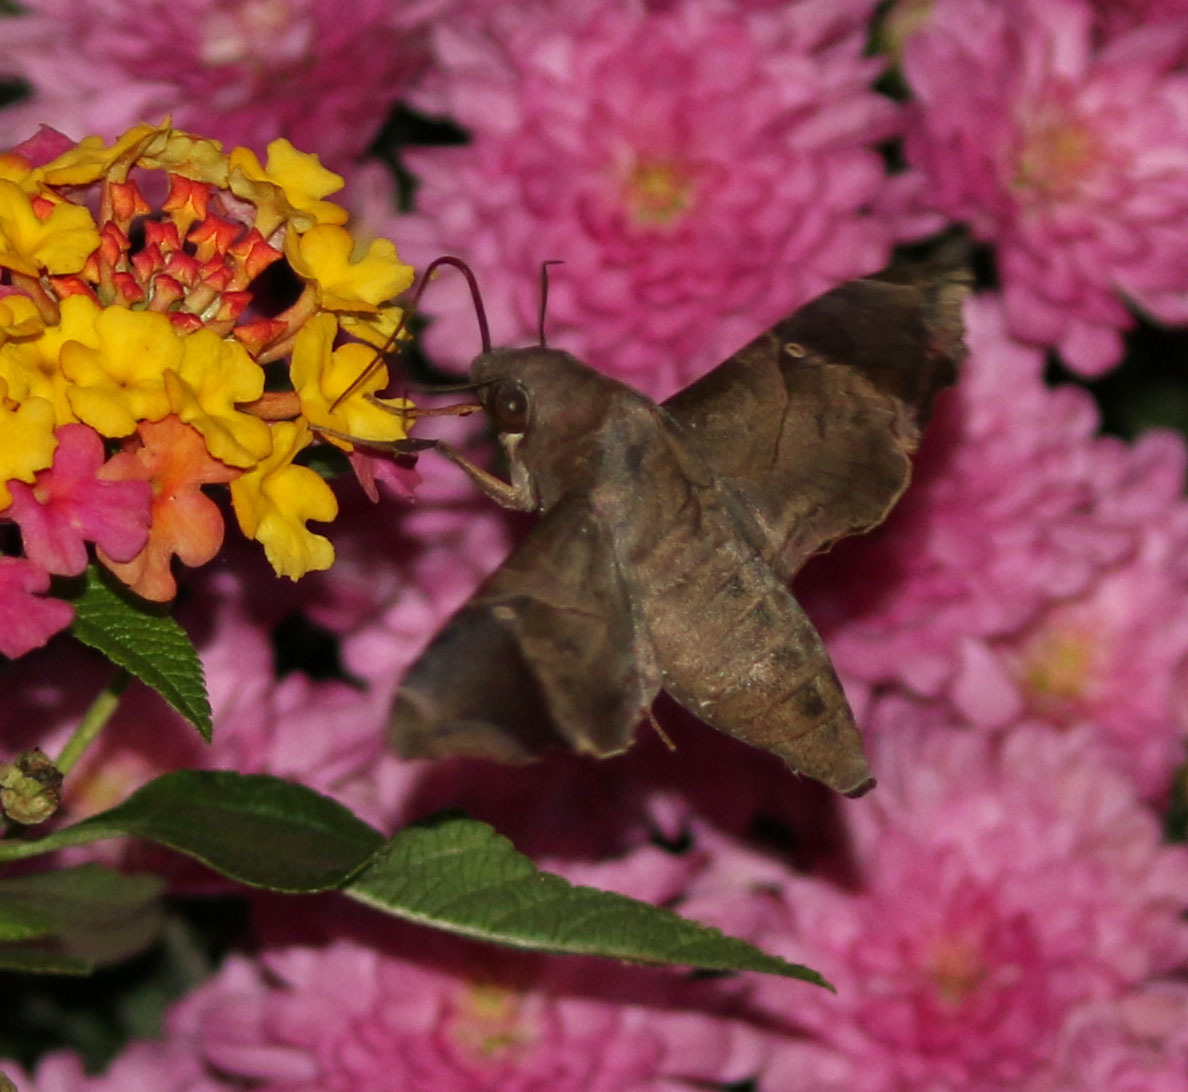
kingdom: Animalia
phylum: Arthropoda
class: Insecta
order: Lepidoptera
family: Sphingidae
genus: Enyo
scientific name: Enyo lugubris
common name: Mournful sphinx
